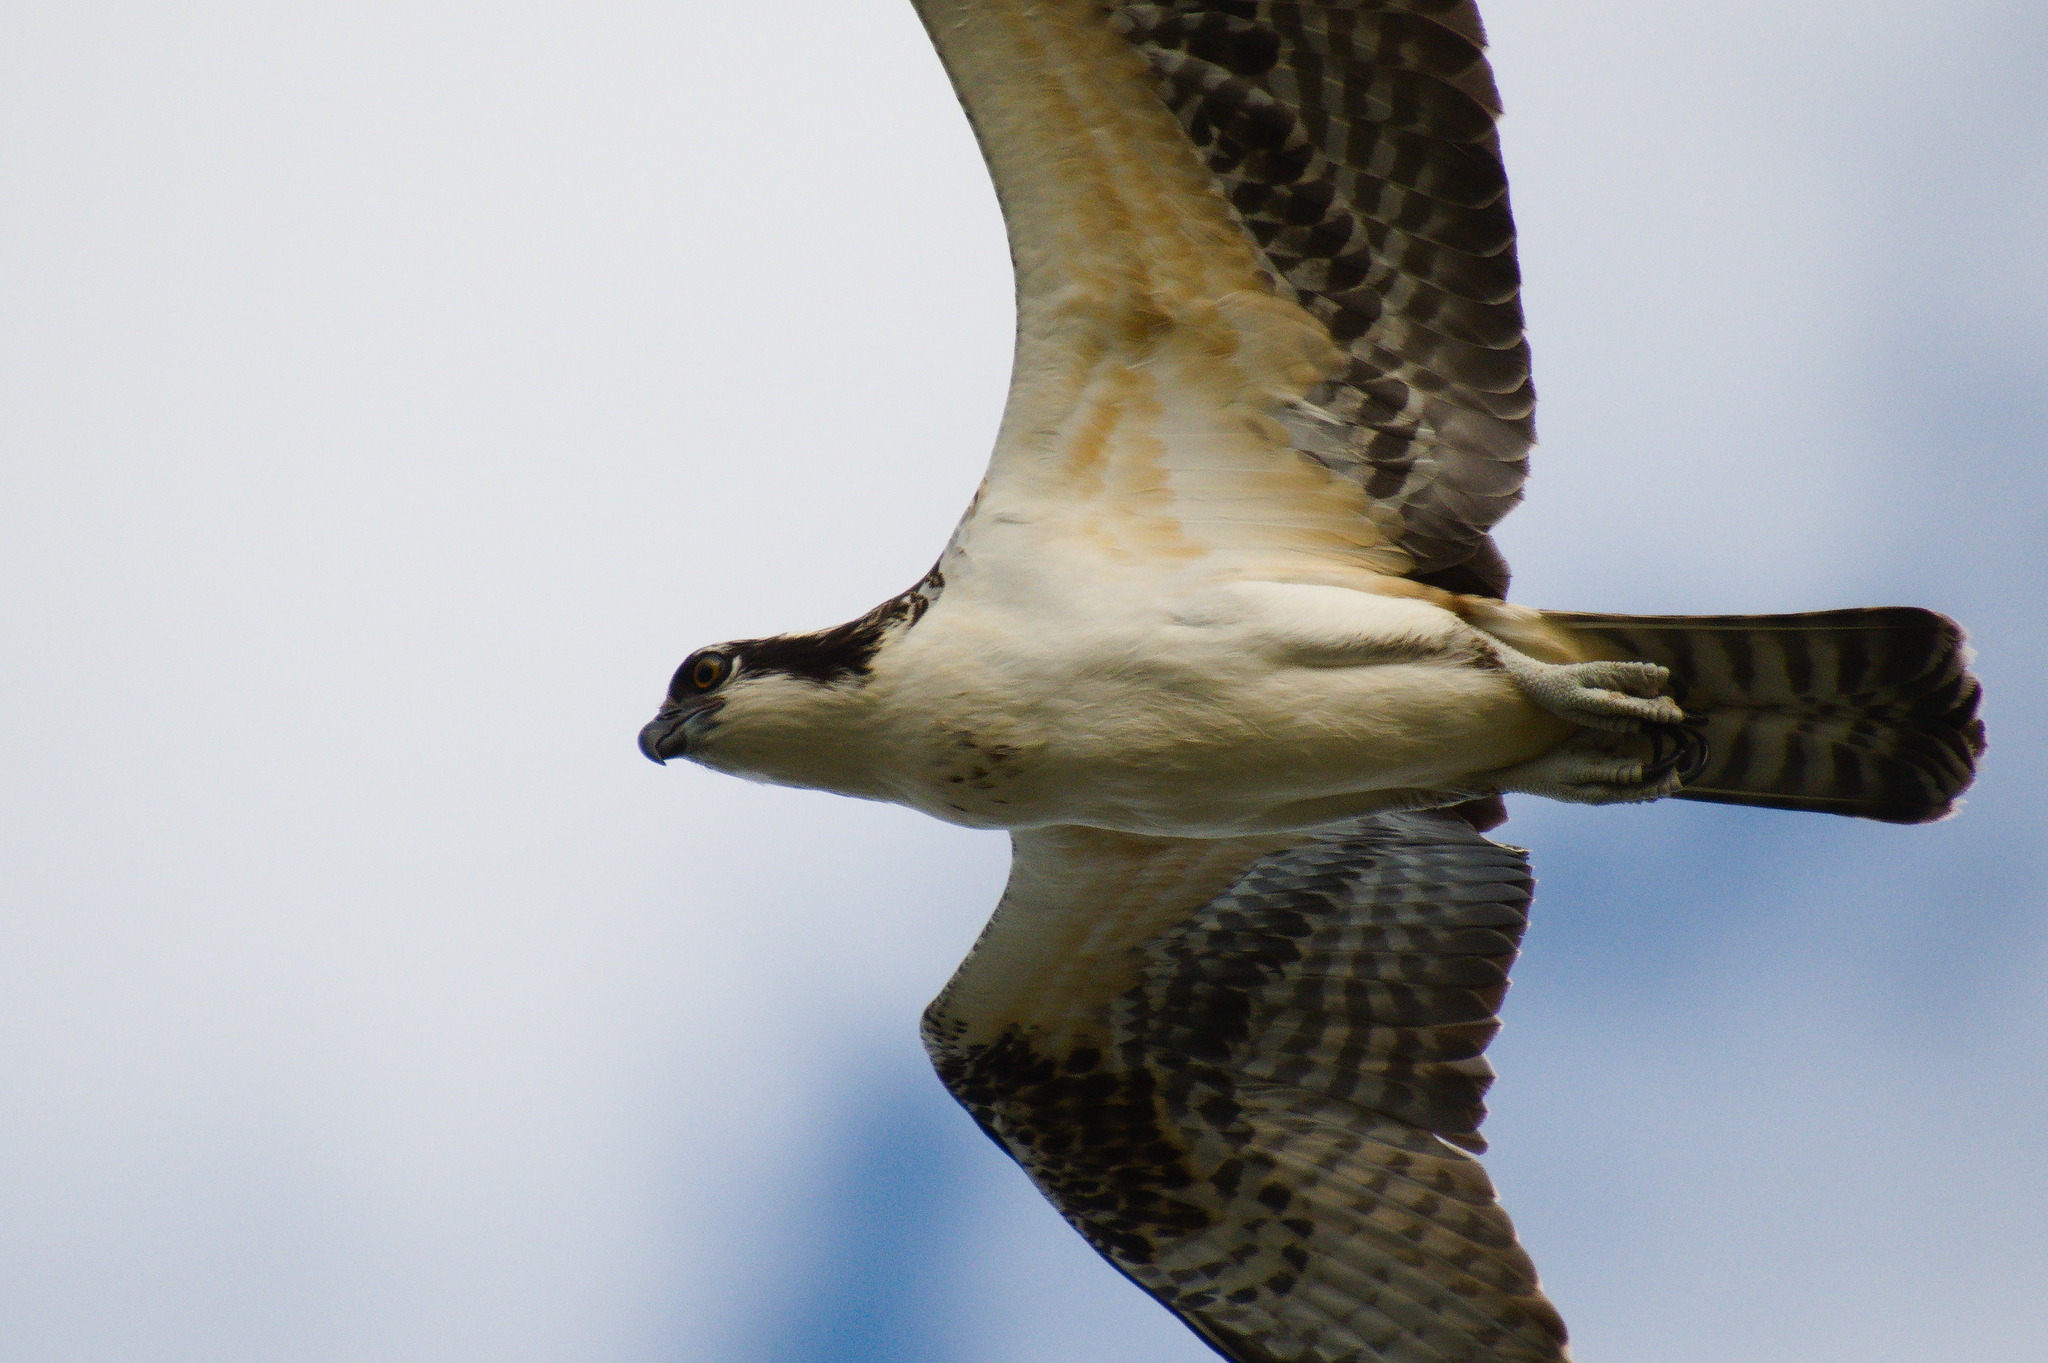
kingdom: Animalia
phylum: Chordata
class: Aves
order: Accipitriformes
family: Pandionidae
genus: Pandion
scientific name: Pandion haliaetus
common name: Osprey
